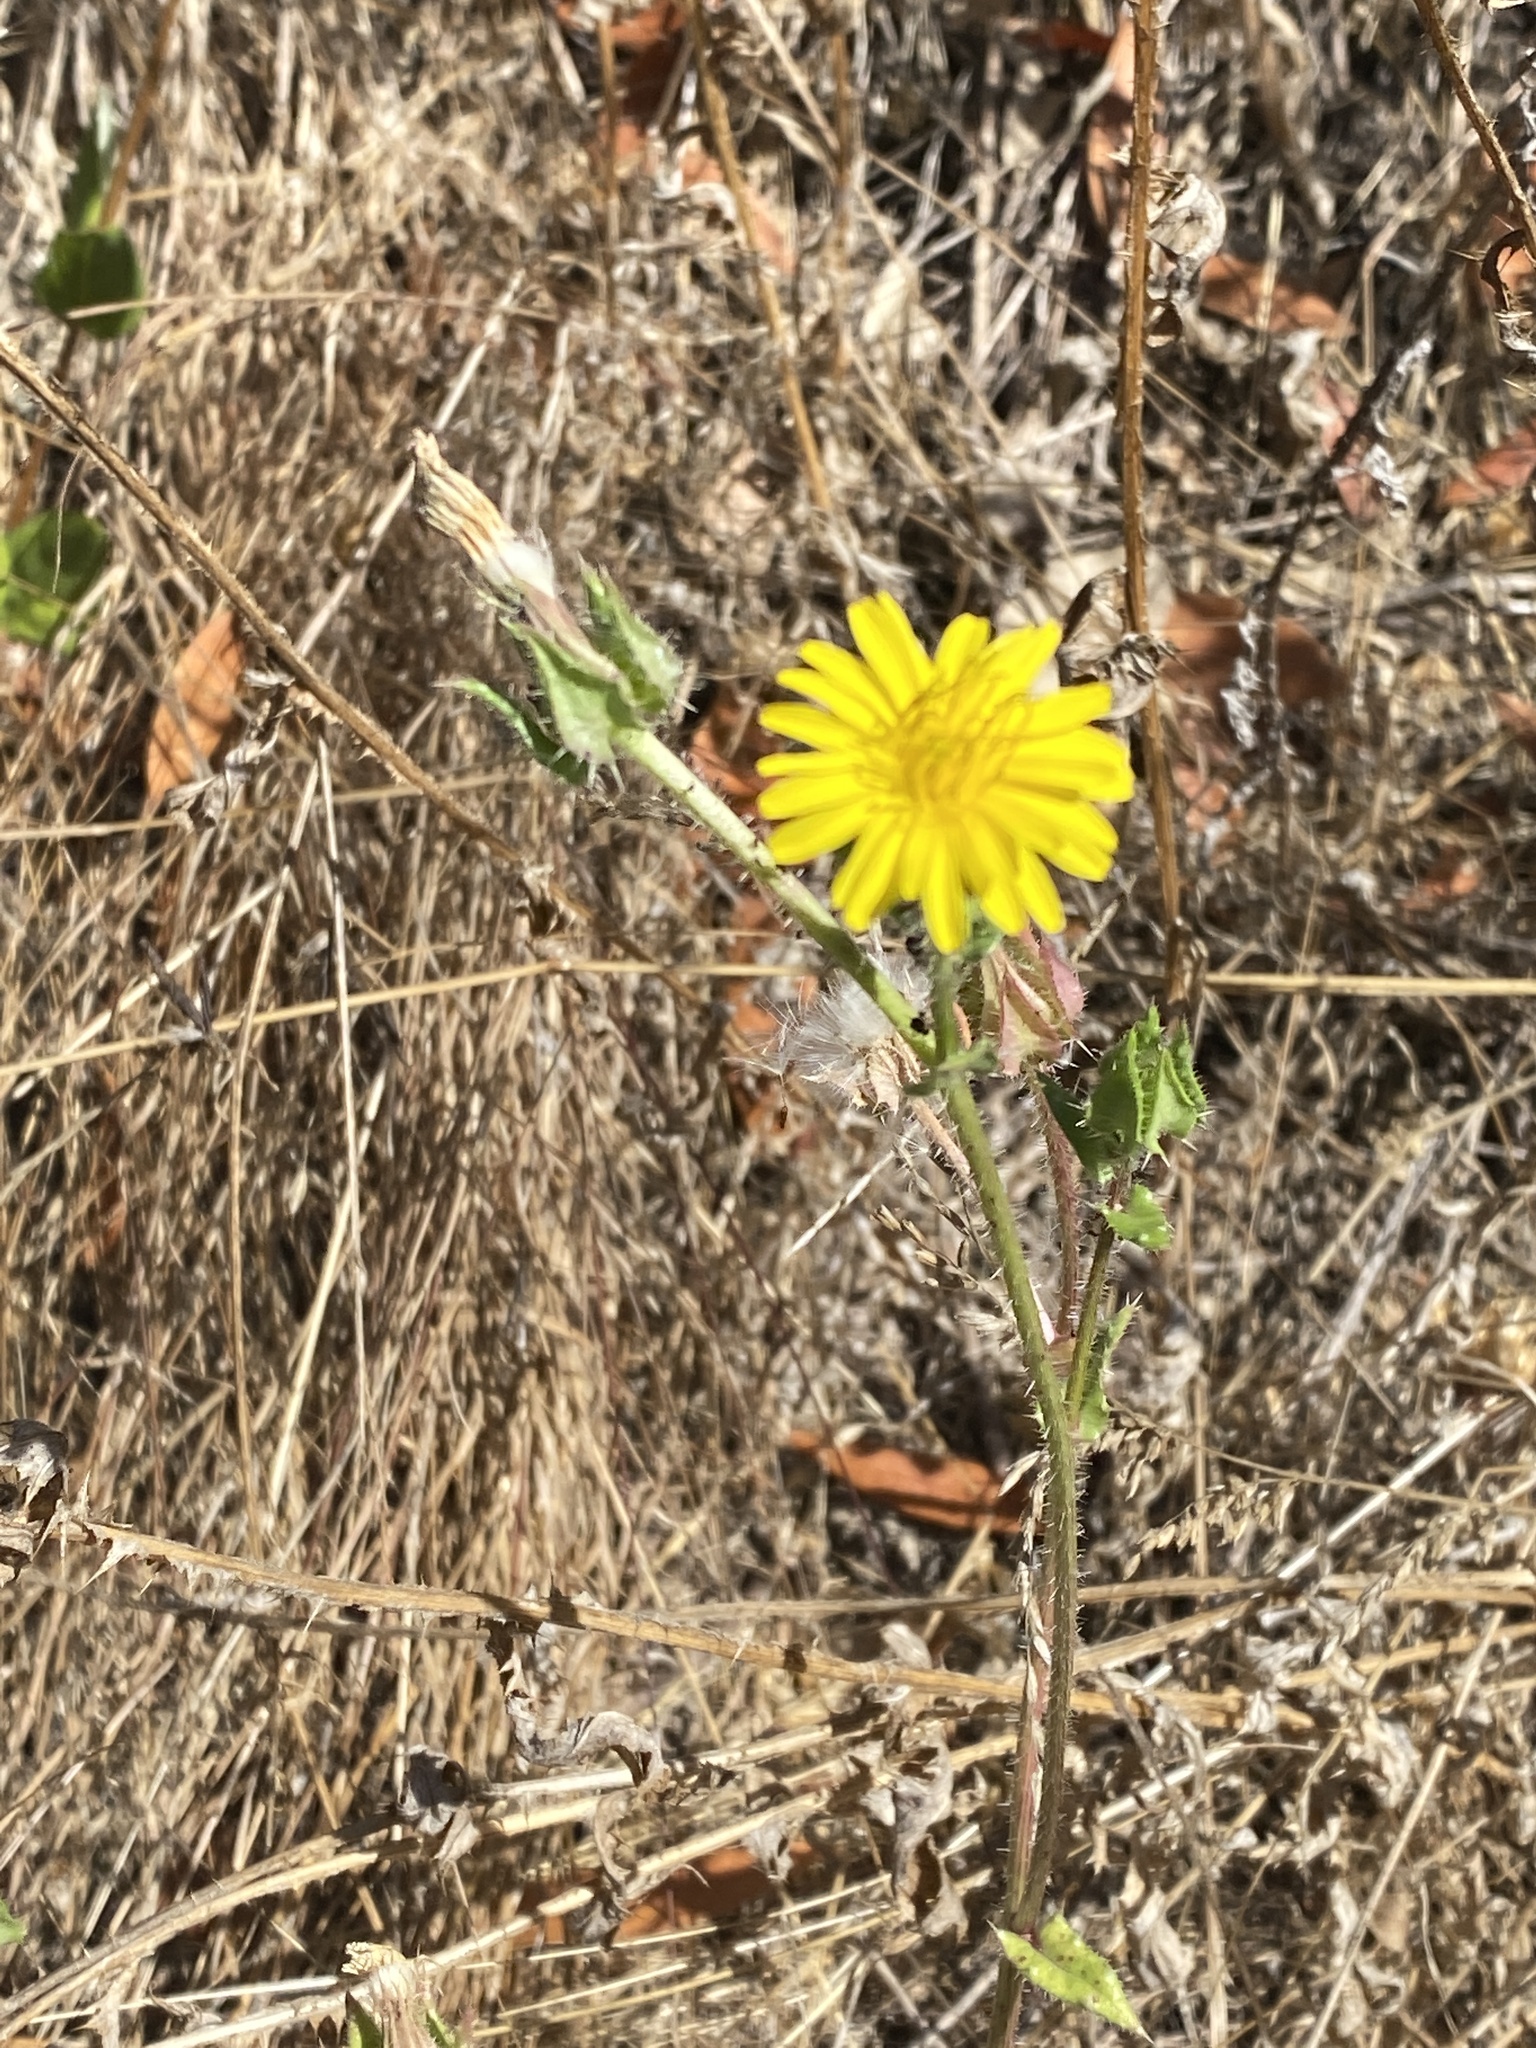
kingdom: Plantae
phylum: Tracheophyta
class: Magnoliopsida
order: Asterales
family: Asteraceae
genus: Helminthotheca
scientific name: Helminthotheca echioides
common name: Ox-tongue
